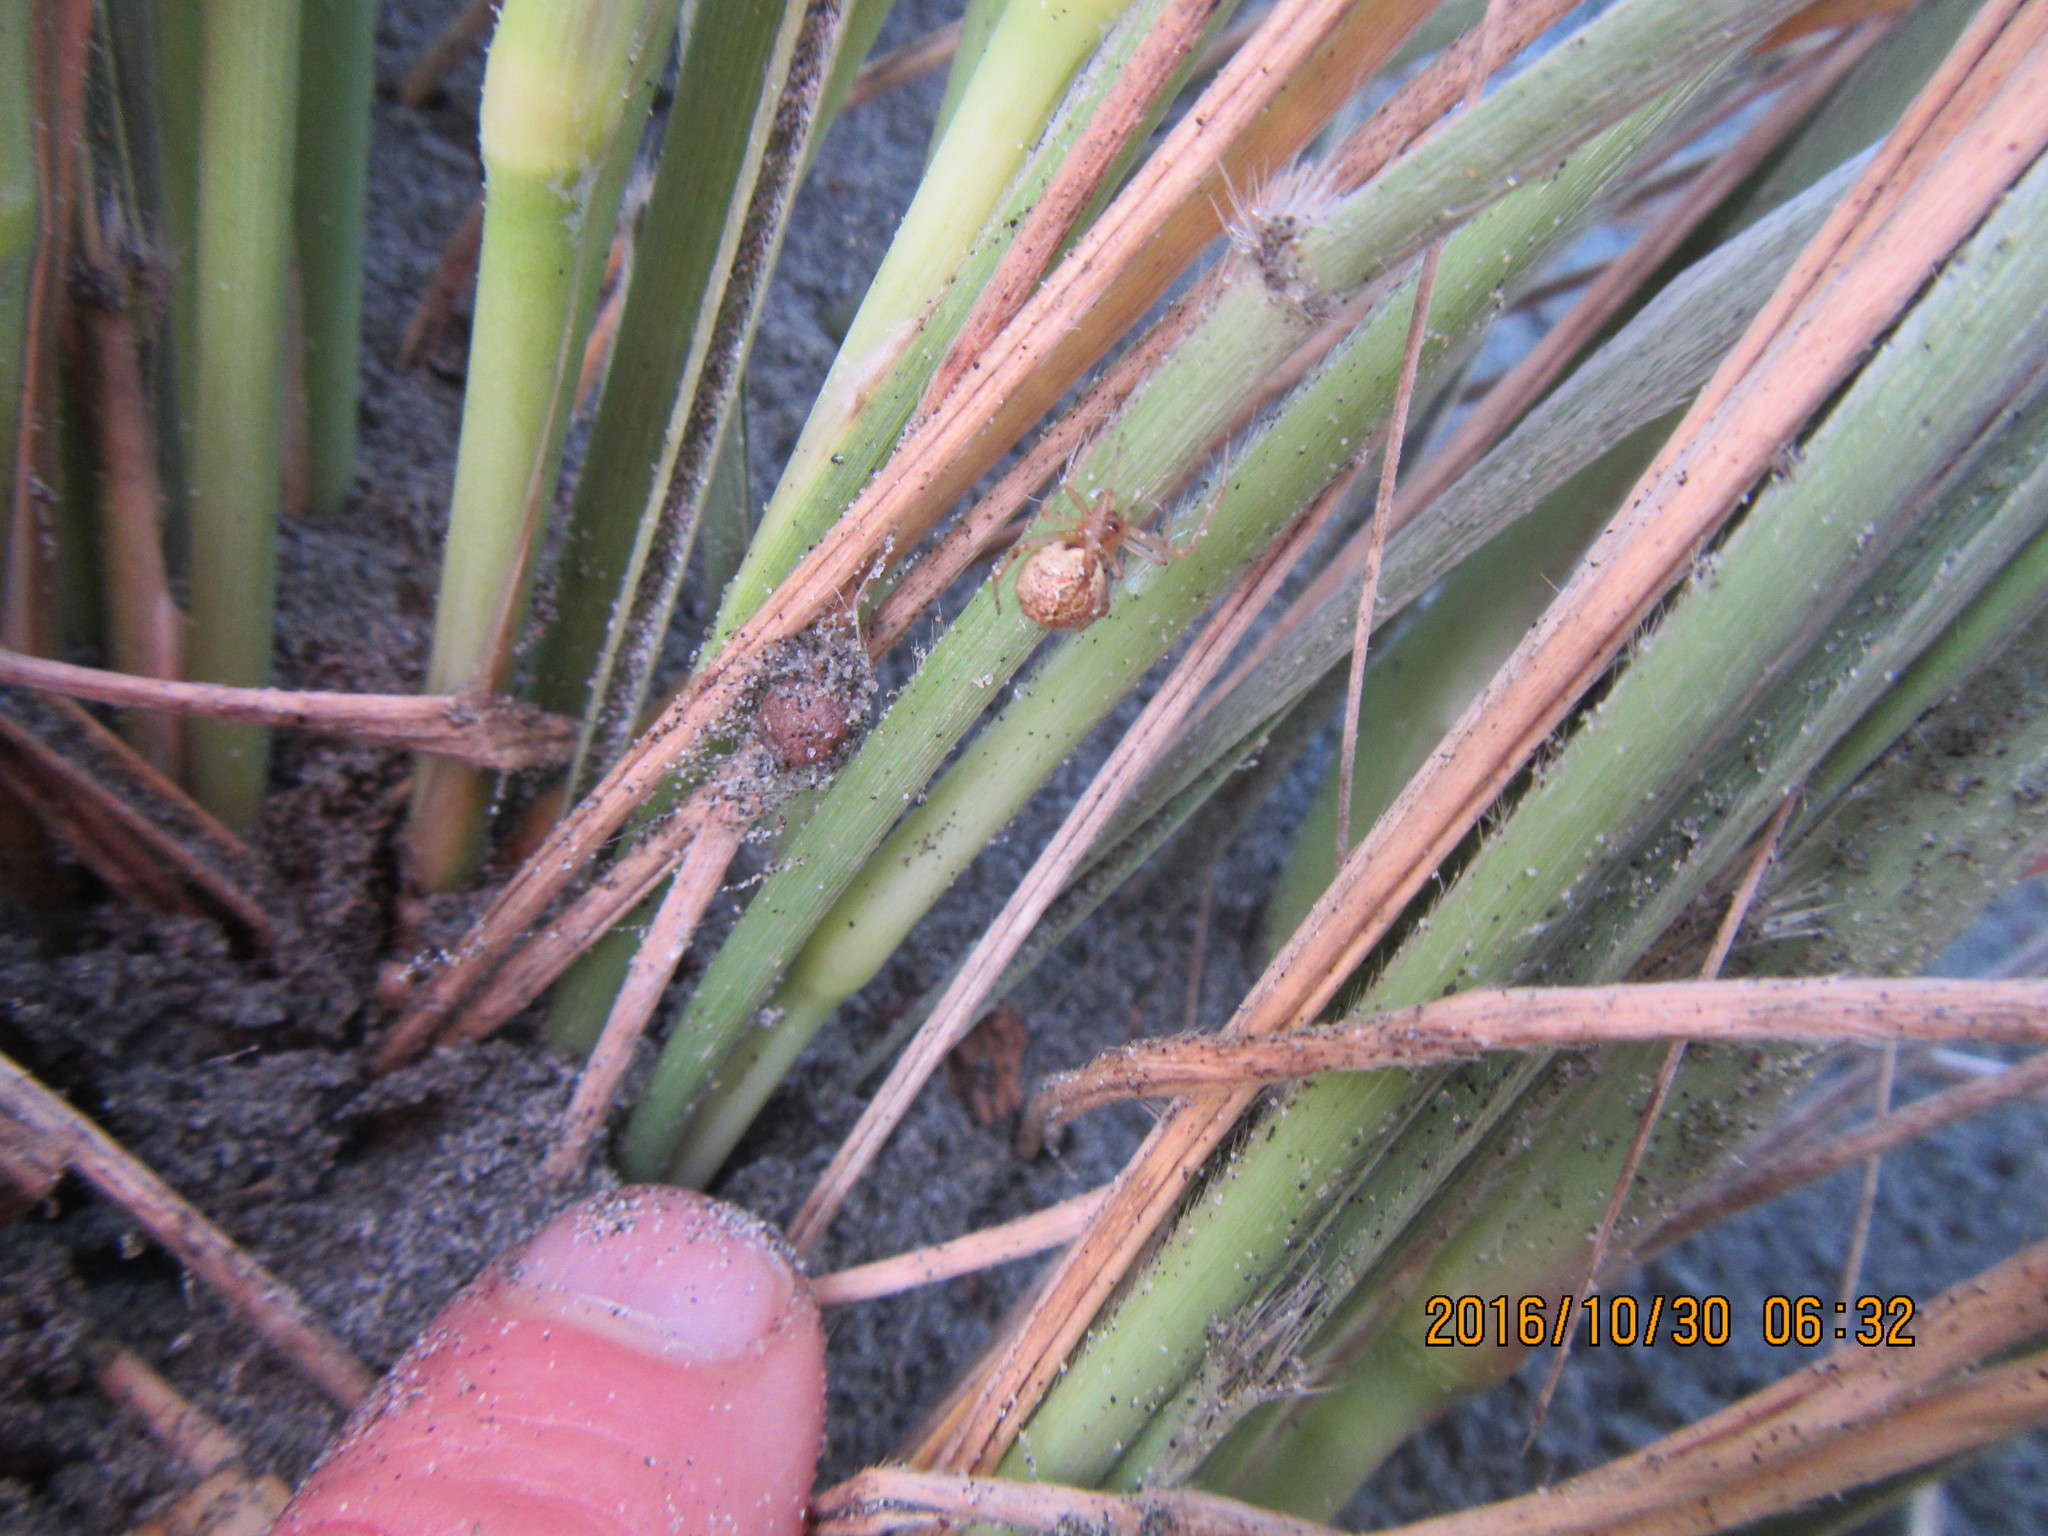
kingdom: Animalia
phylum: Arthropoda
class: Arachnida
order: Araneae
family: Theridiidae
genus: Cryptachaea
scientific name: Cryptachaea veruculata
